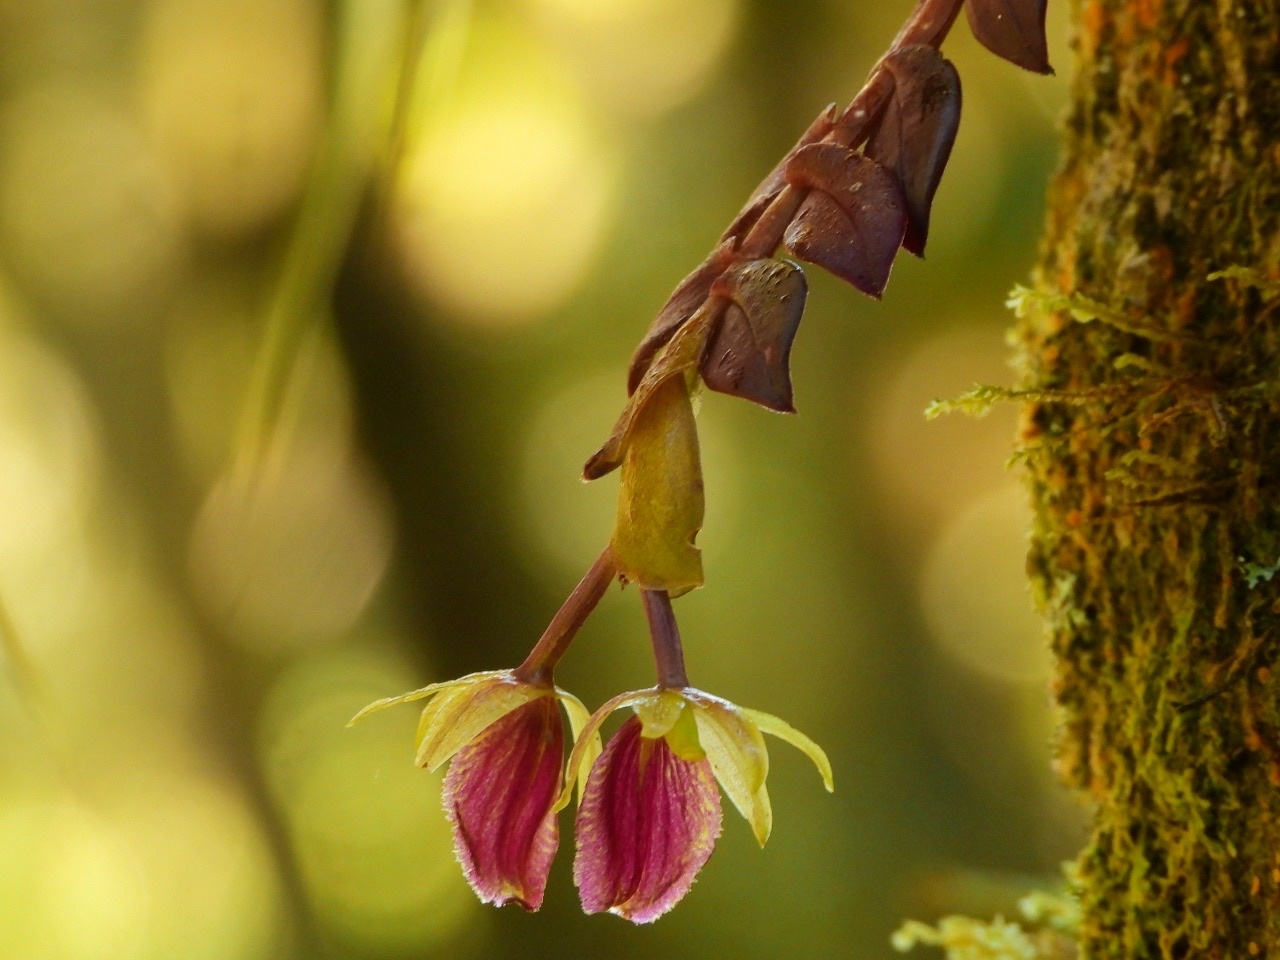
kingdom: Plantae
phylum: Tracheophyta
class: Liliopsida
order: Asparagales
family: Orchidaceae
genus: Epidendrum
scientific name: Epidendrum megalospathum
